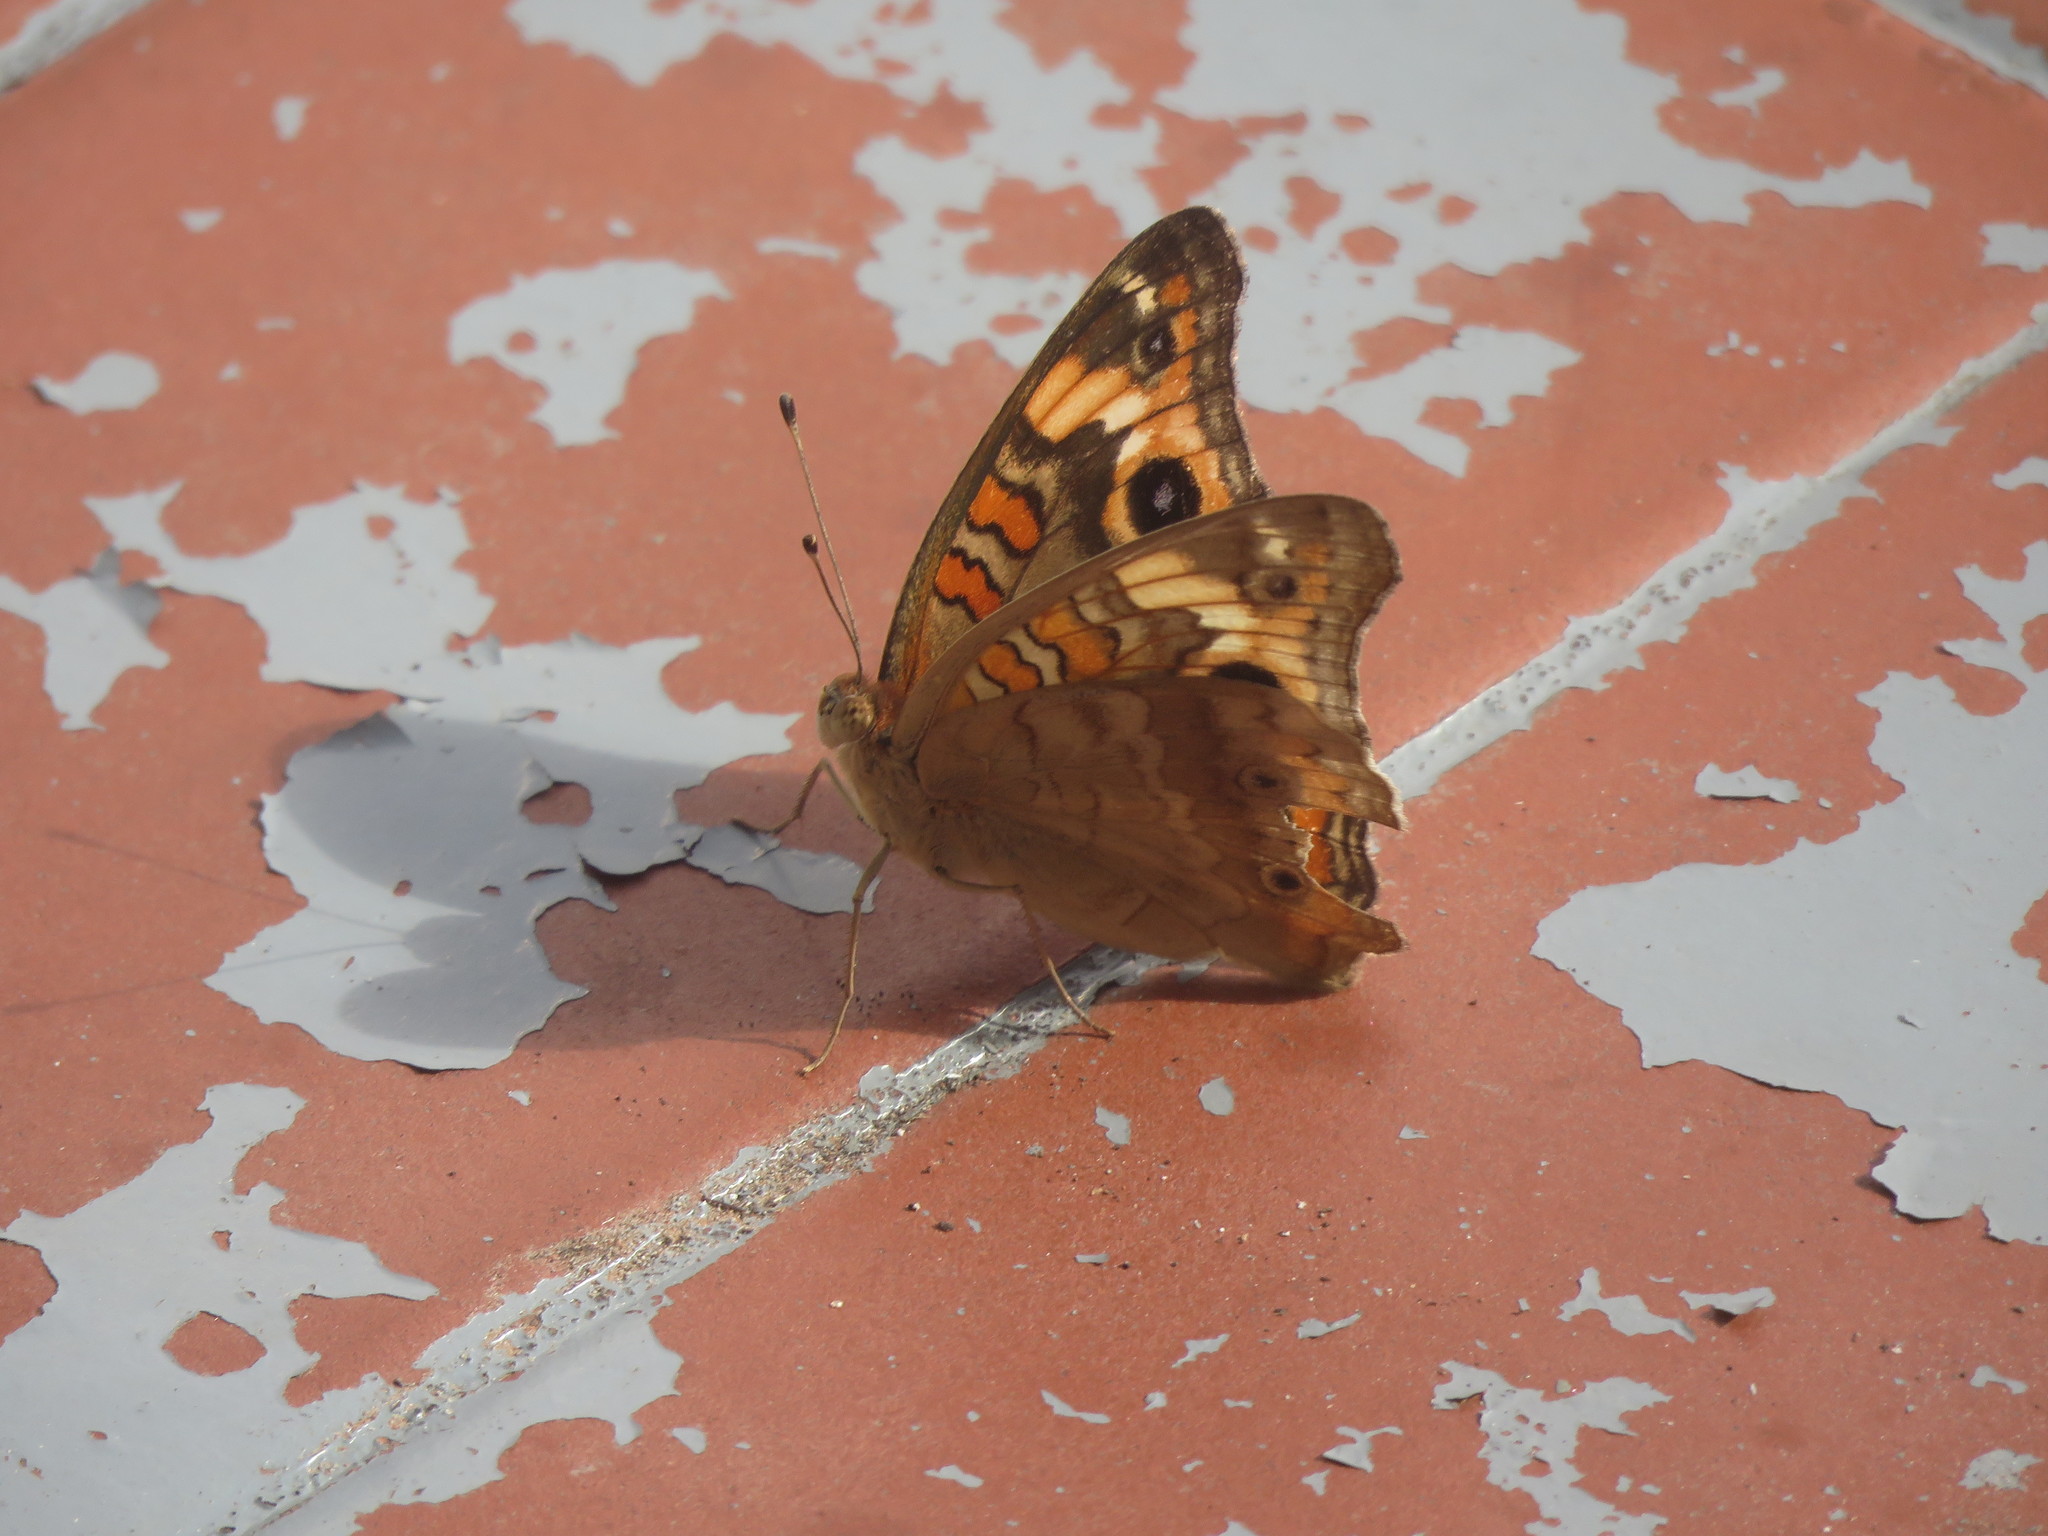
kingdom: Animalia
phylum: Arthropoda
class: Insecta
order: Lepidoptera
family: Nymphalidae
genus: Junonia
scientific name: Junonia lavinia
